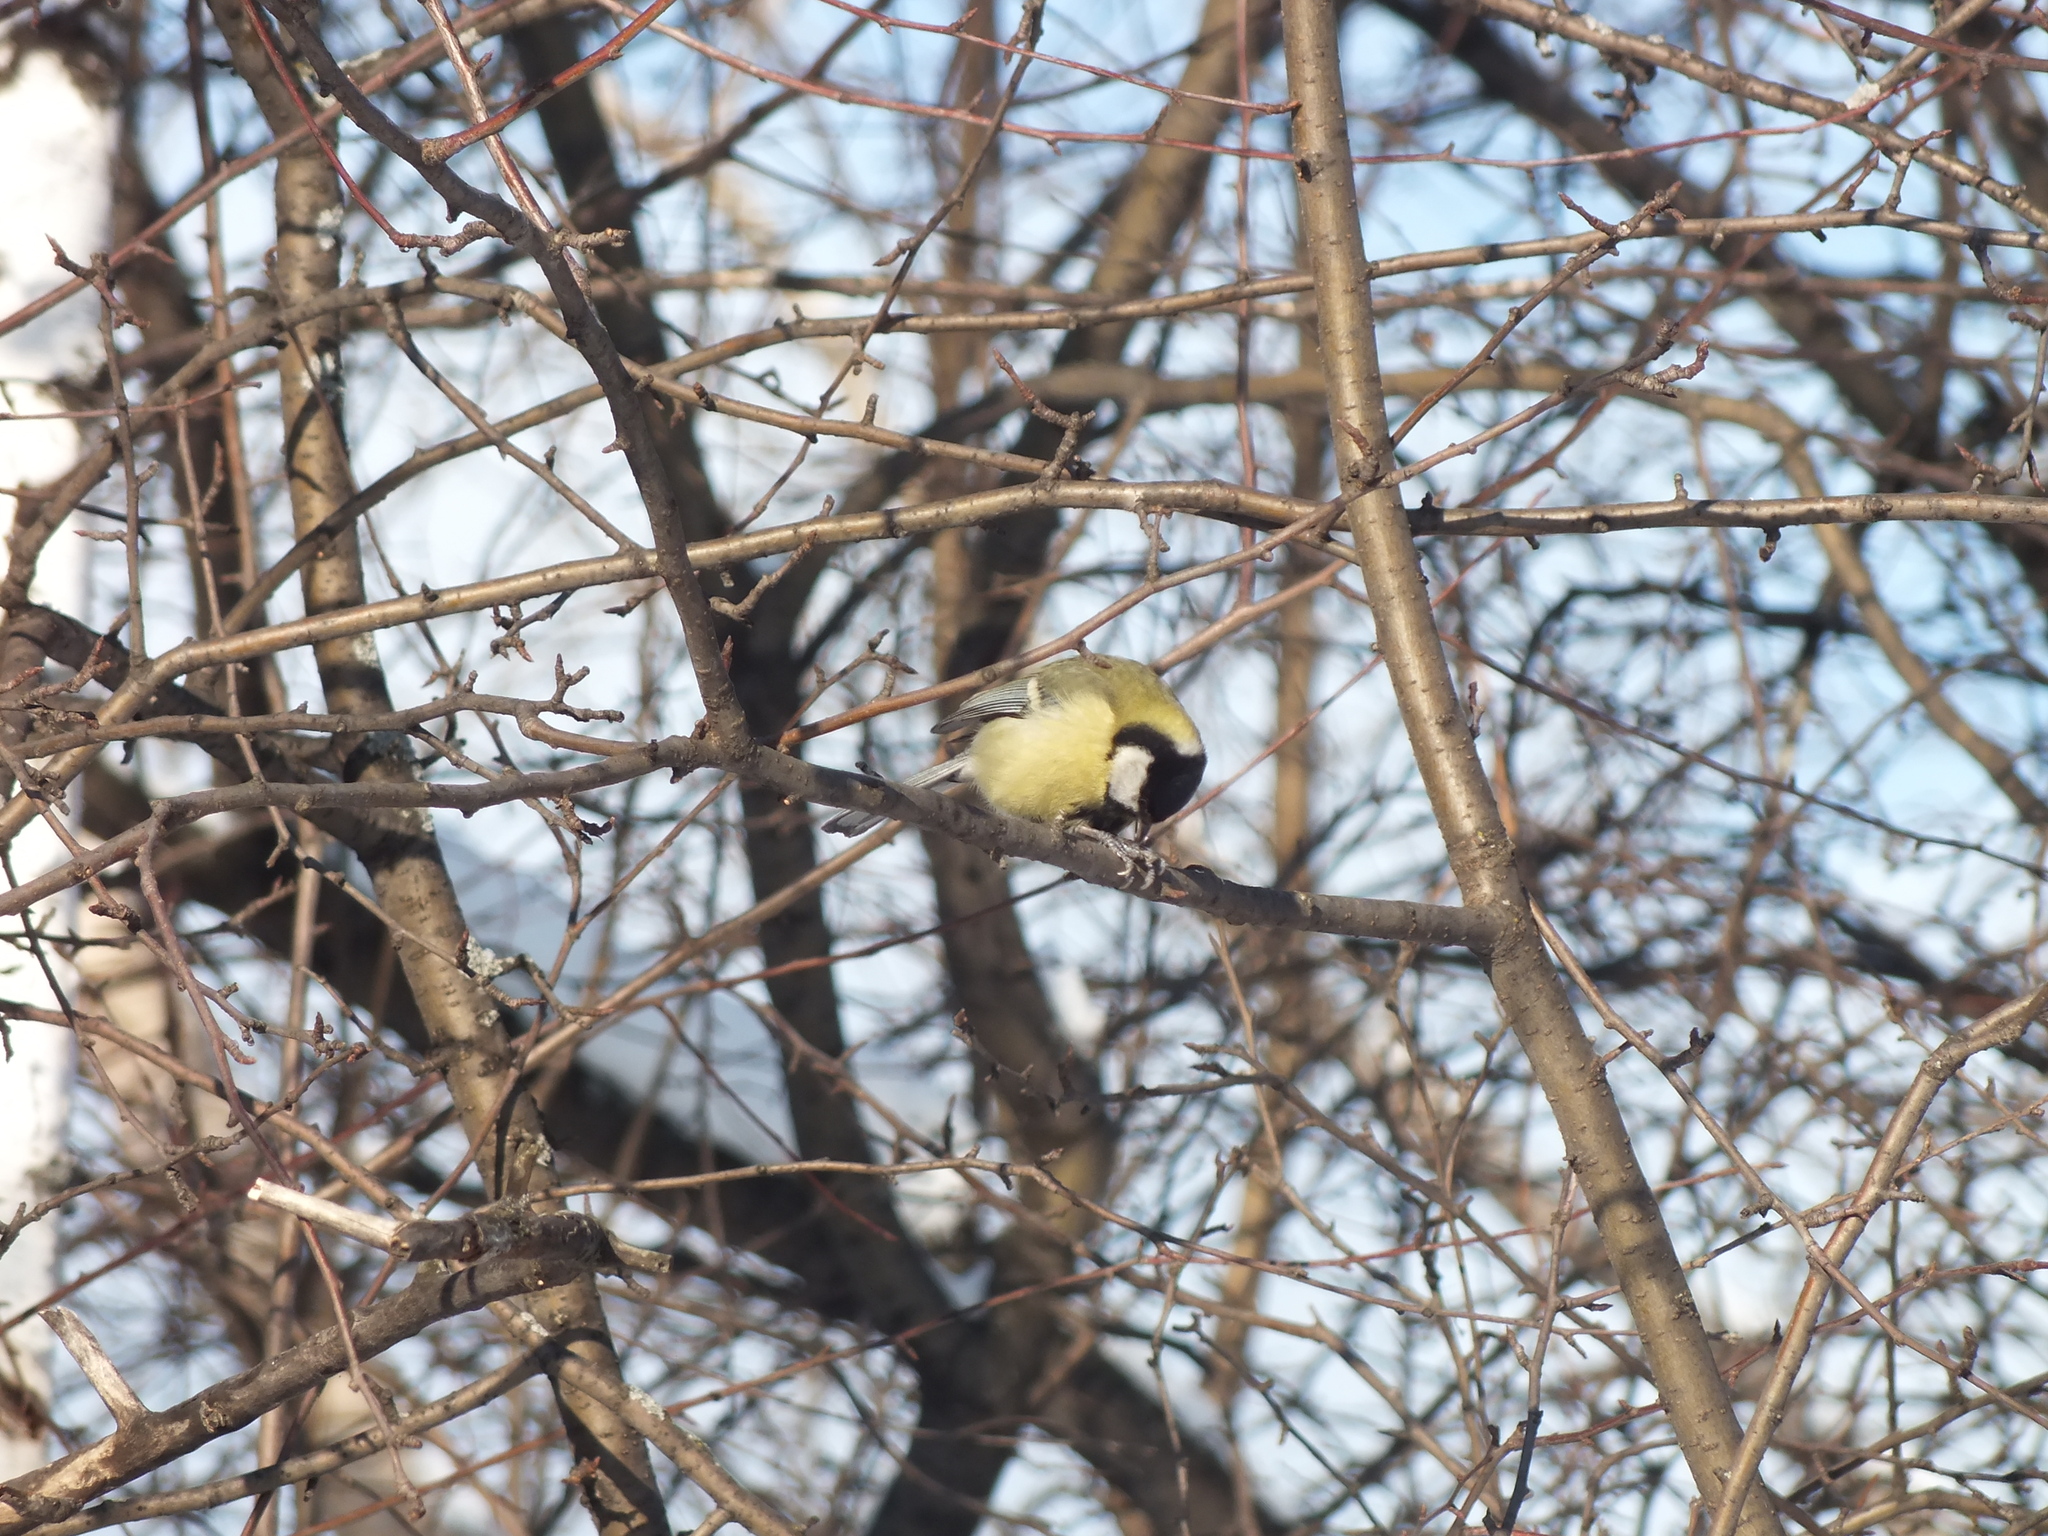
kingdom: Animalia
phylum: Chordata
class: Aves
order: Passeriformes
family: Paridae
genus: Parus
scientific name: Parus major
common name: Great tit
